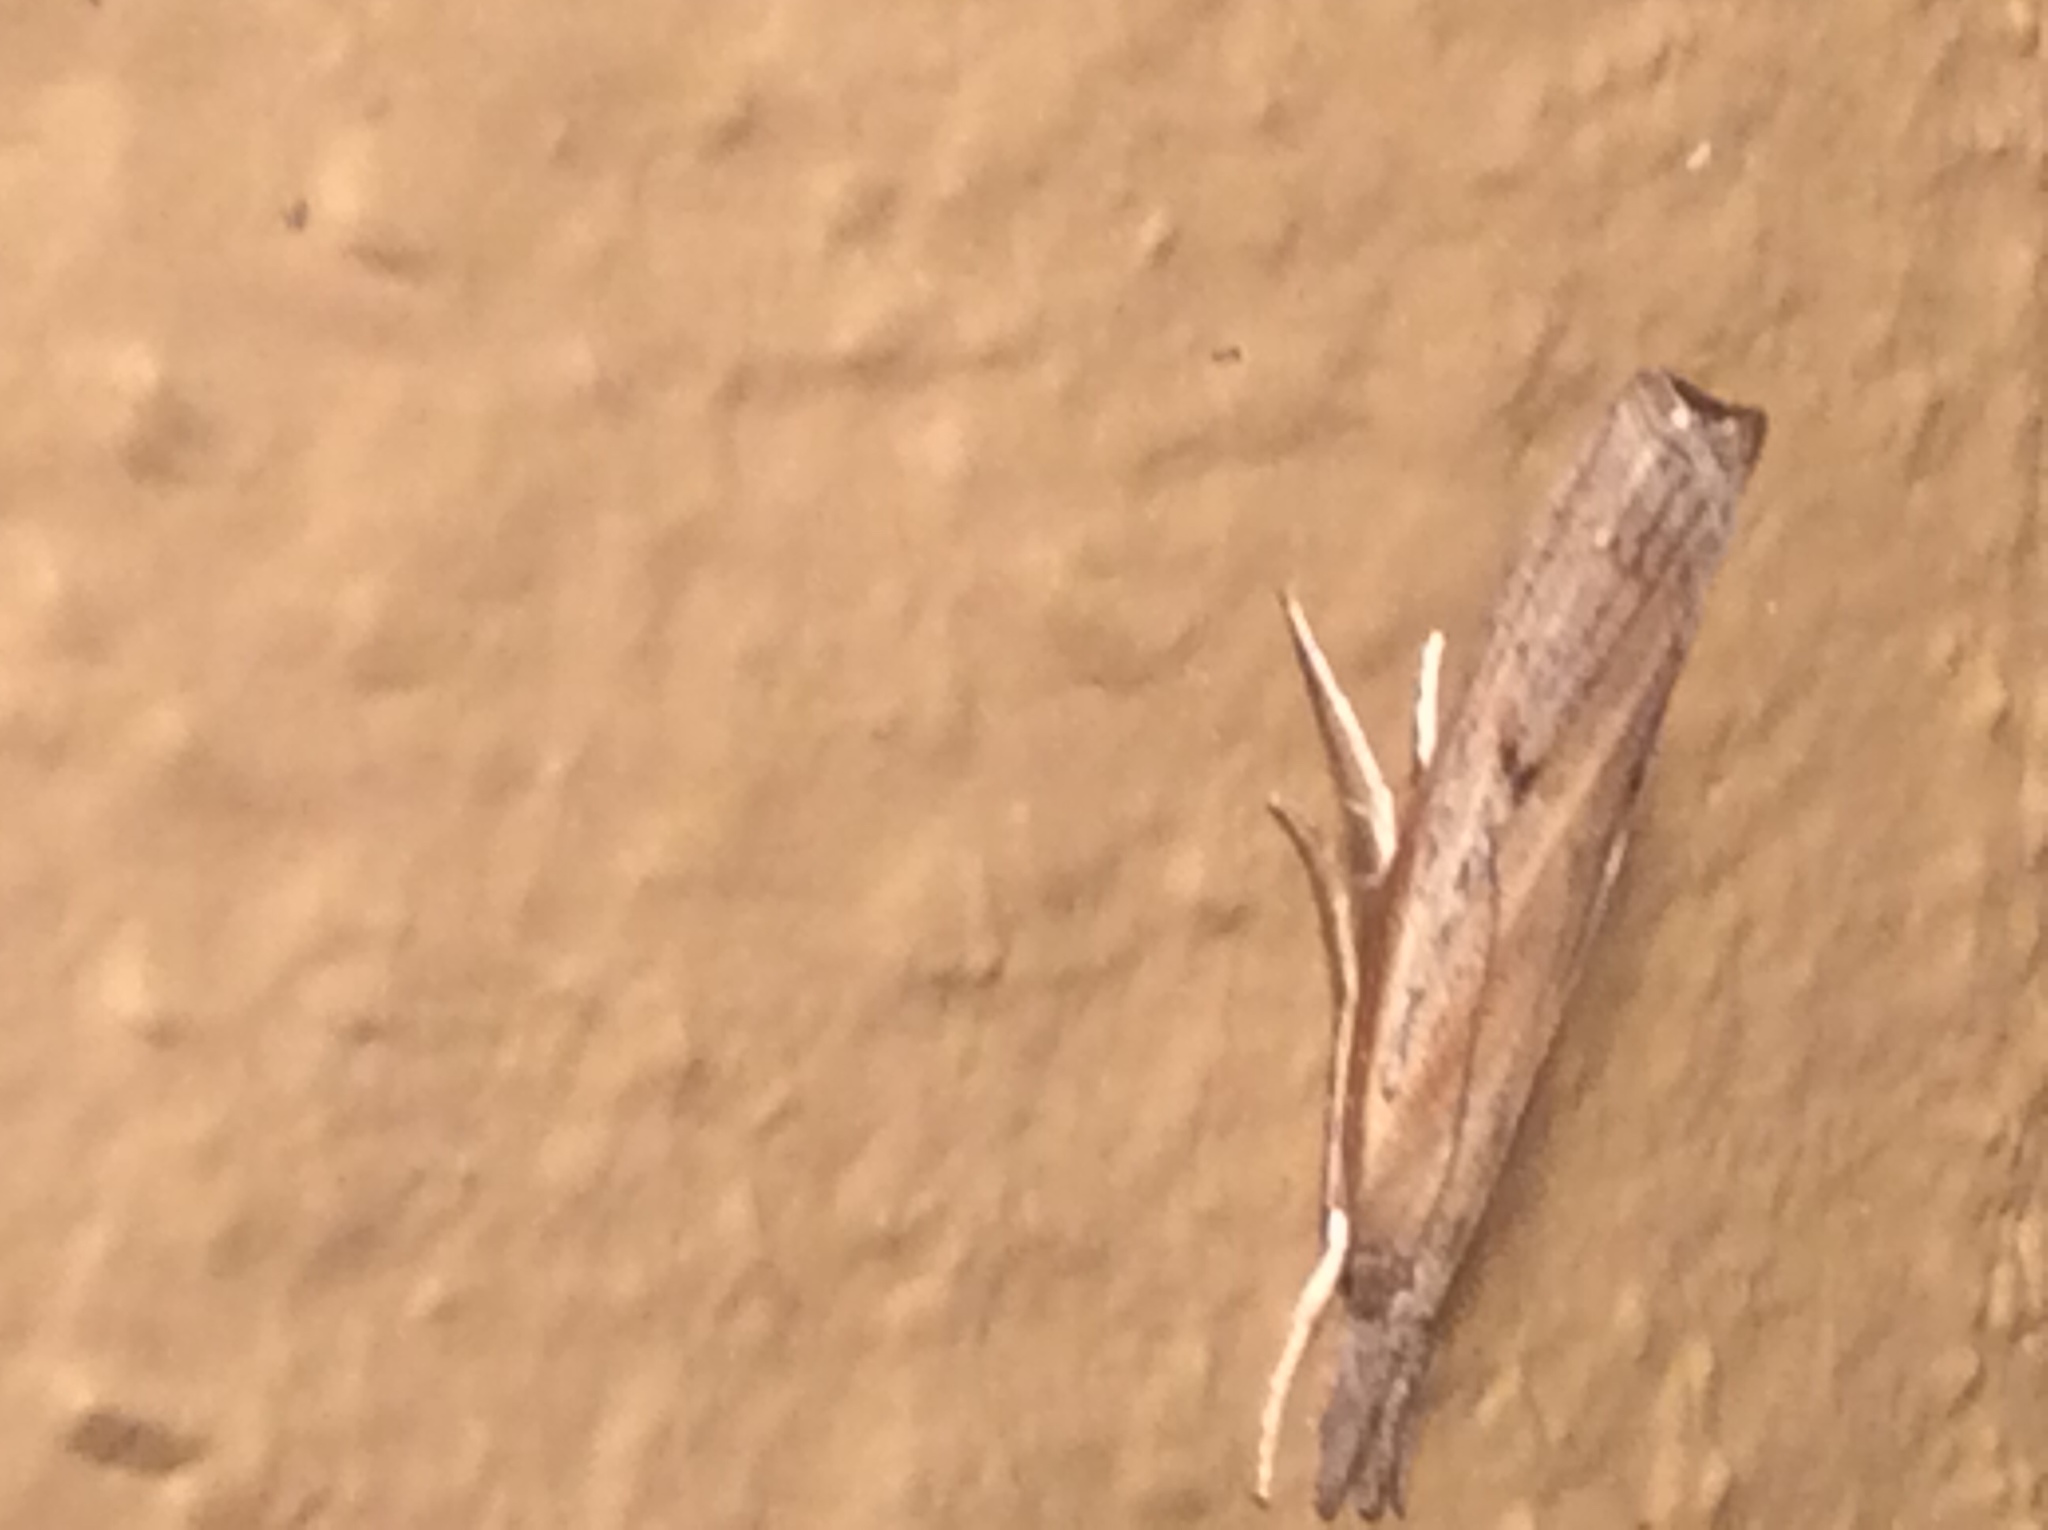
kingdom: Animalia
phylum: Arthropoda
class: Insecta
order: Lepidoptera
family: Crambidae
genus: Fissicrambus
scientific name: Fissicrambus mutabilis
